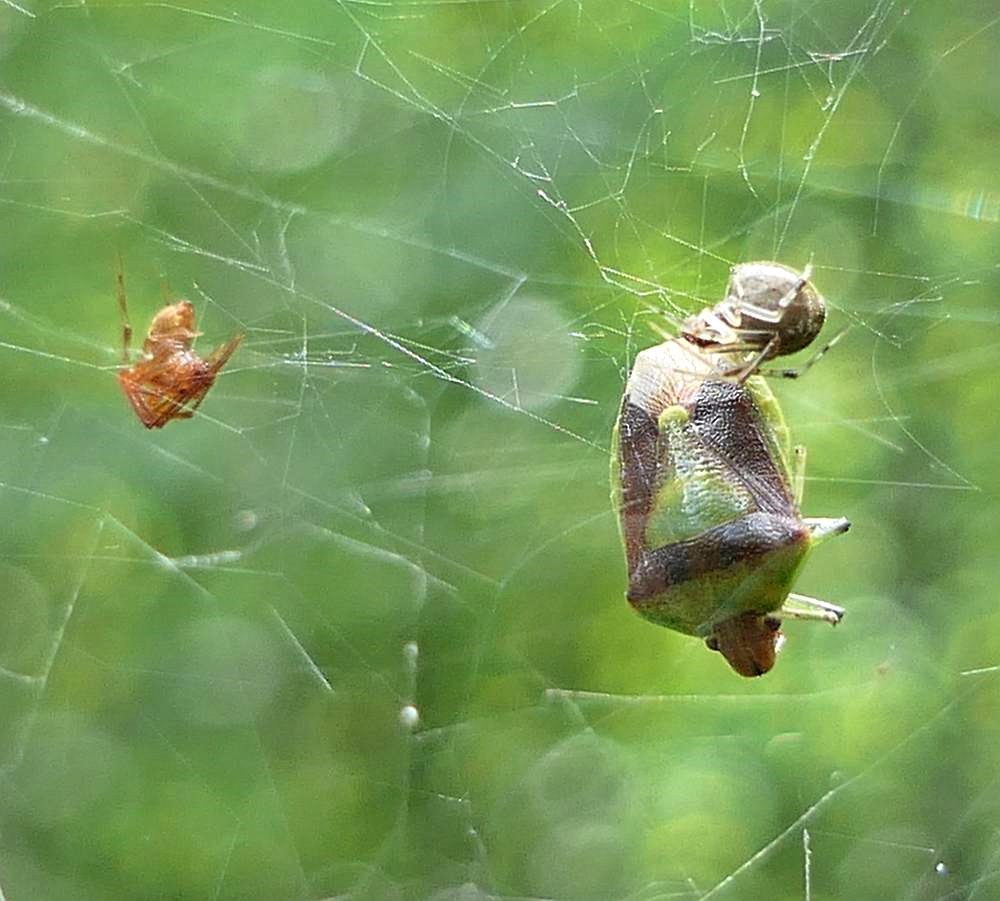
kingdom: Animalia
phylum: Arthropoda
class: Insecta
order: Hemiptera
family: Pentatomidae
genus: Banasa
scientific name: Banasa dimidiata
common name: Green burgundy stink bug
